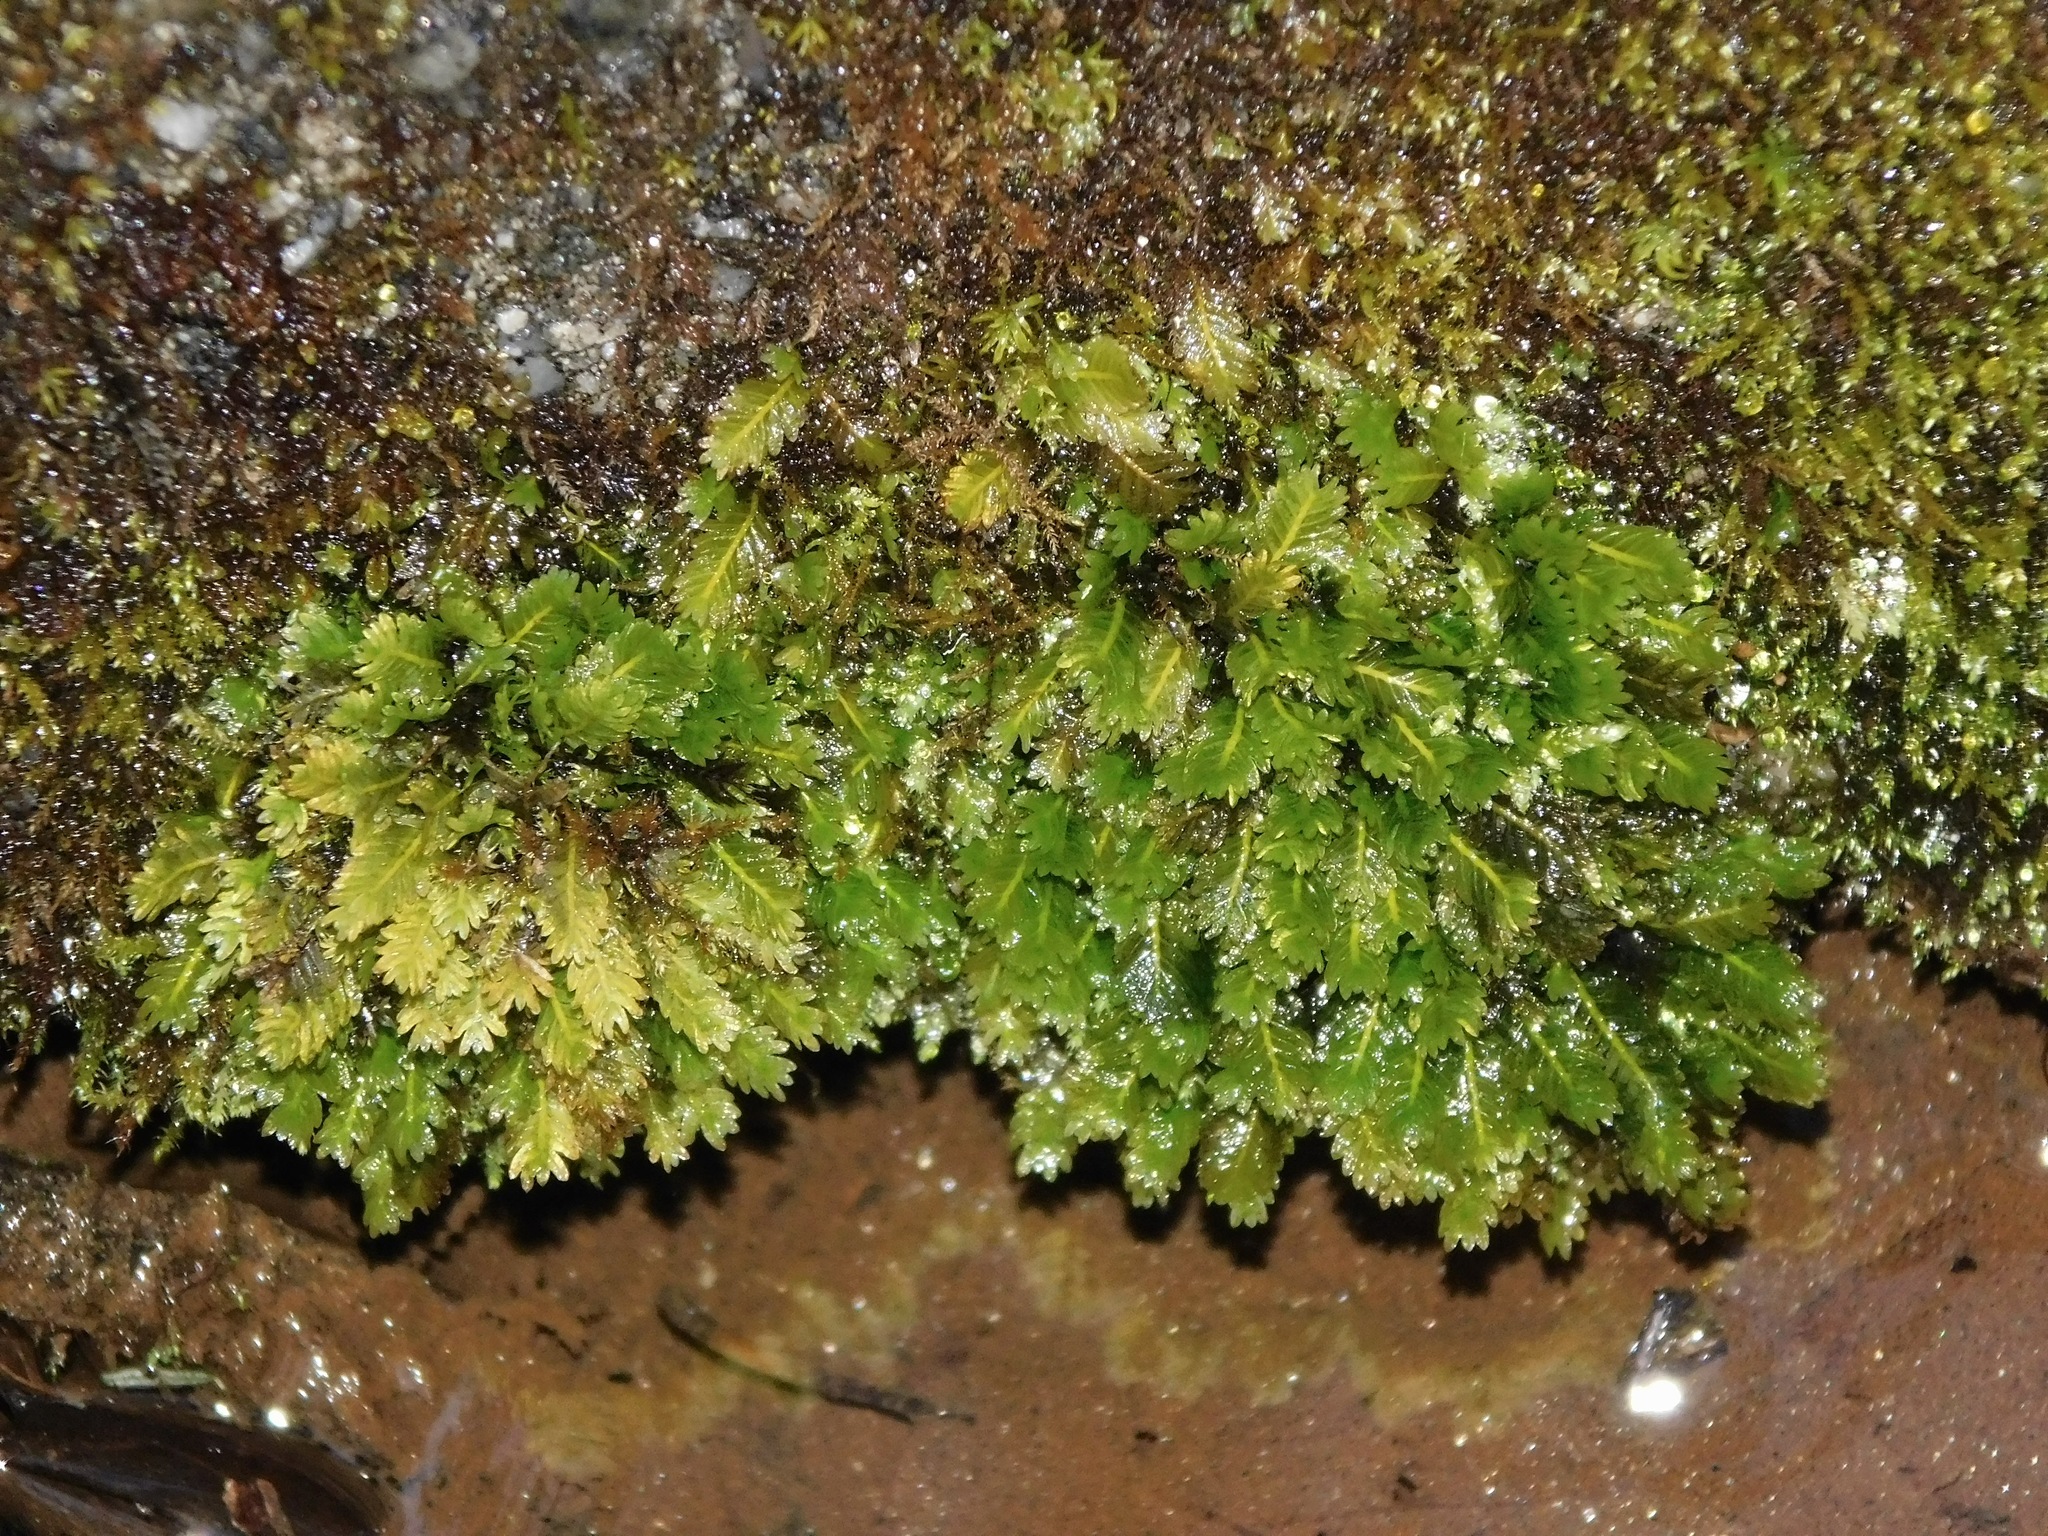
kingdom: Plantae
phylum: Bryophyta
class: Bryopsida
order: Dicranales
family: Fissidentaceae
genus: Fissidens
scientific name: Fissidens osmundioides
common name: Osmund fissidens moss
